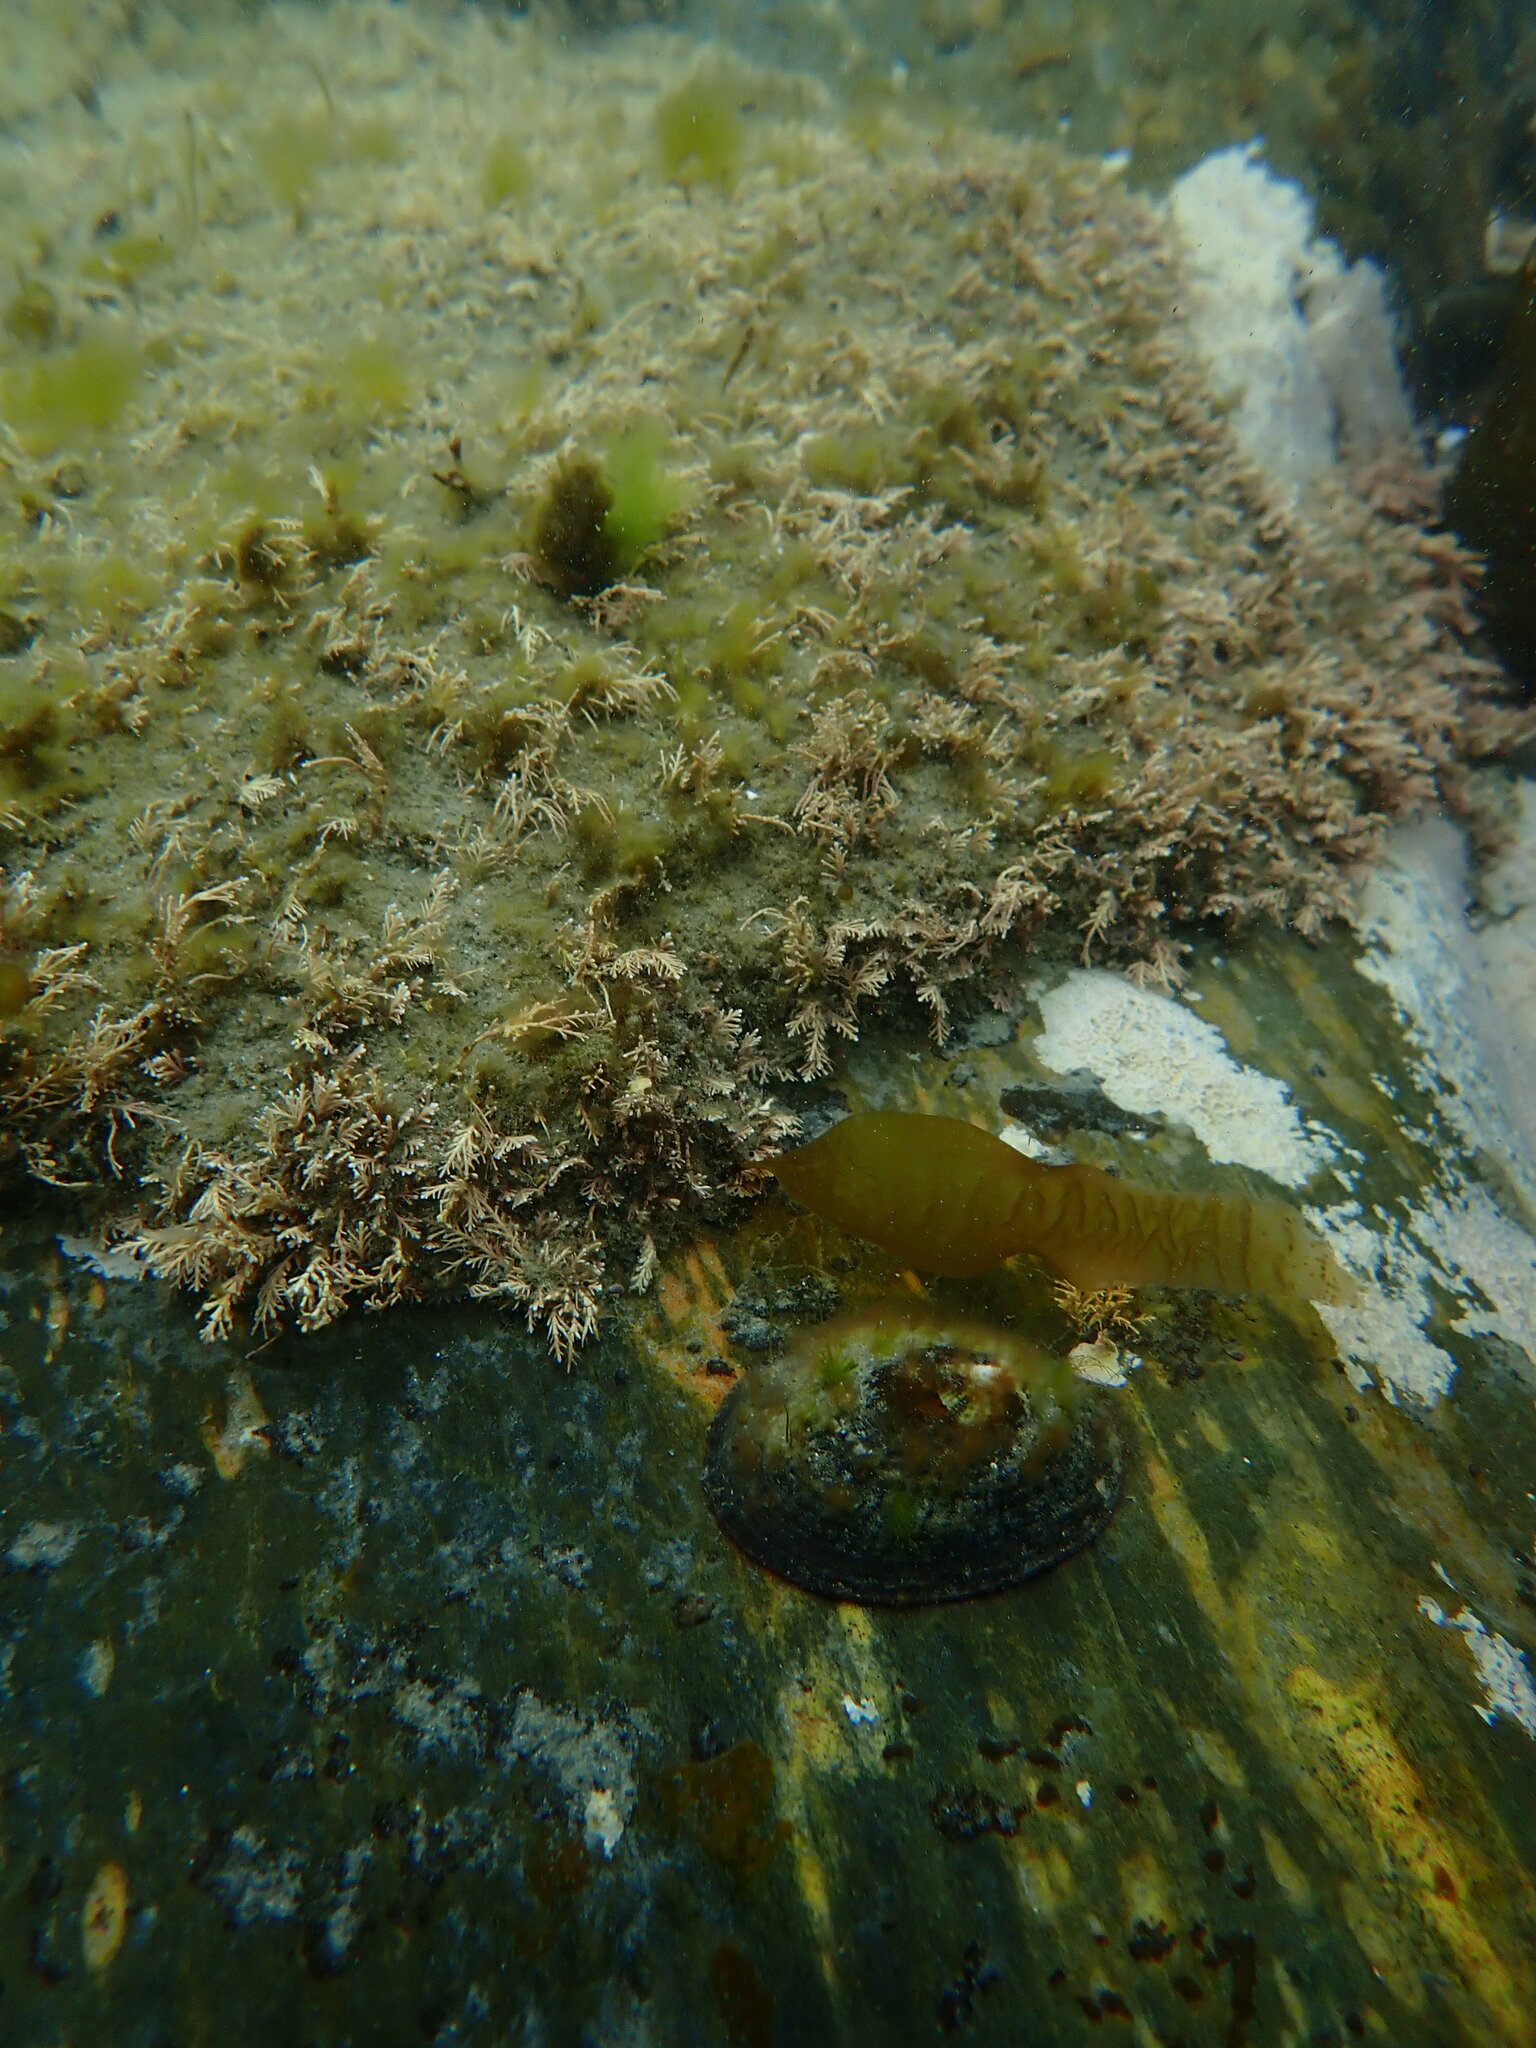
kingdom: Plantae
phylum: Rhodophyta
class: Florideophyceae
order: Corallinales
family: Corallinaceae
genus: Corallina
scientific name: Corallina officinalis
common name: Coral weed
